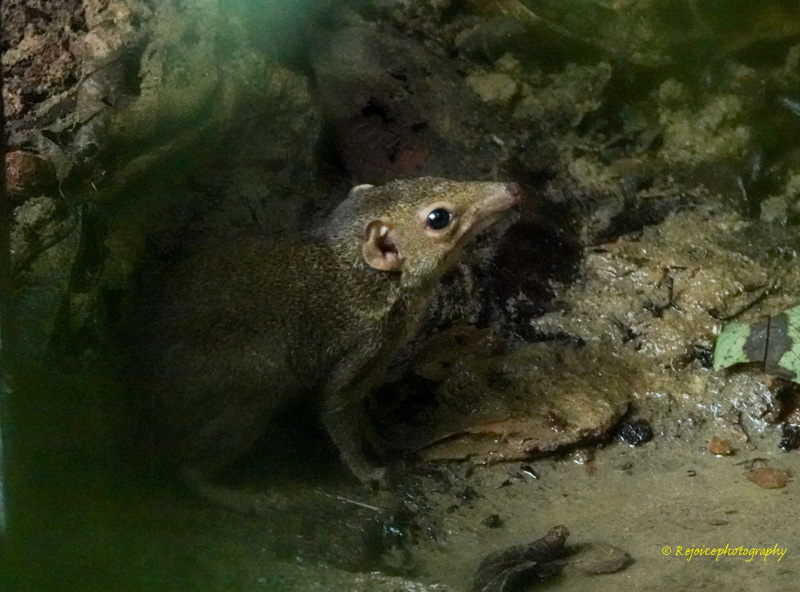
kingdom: Animalia
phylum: Chordata
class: Mammalia
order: Scandentia
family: Tupaiidae
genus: Tupaia
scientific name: Tupaia belangeri
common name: Northern treeshrew
